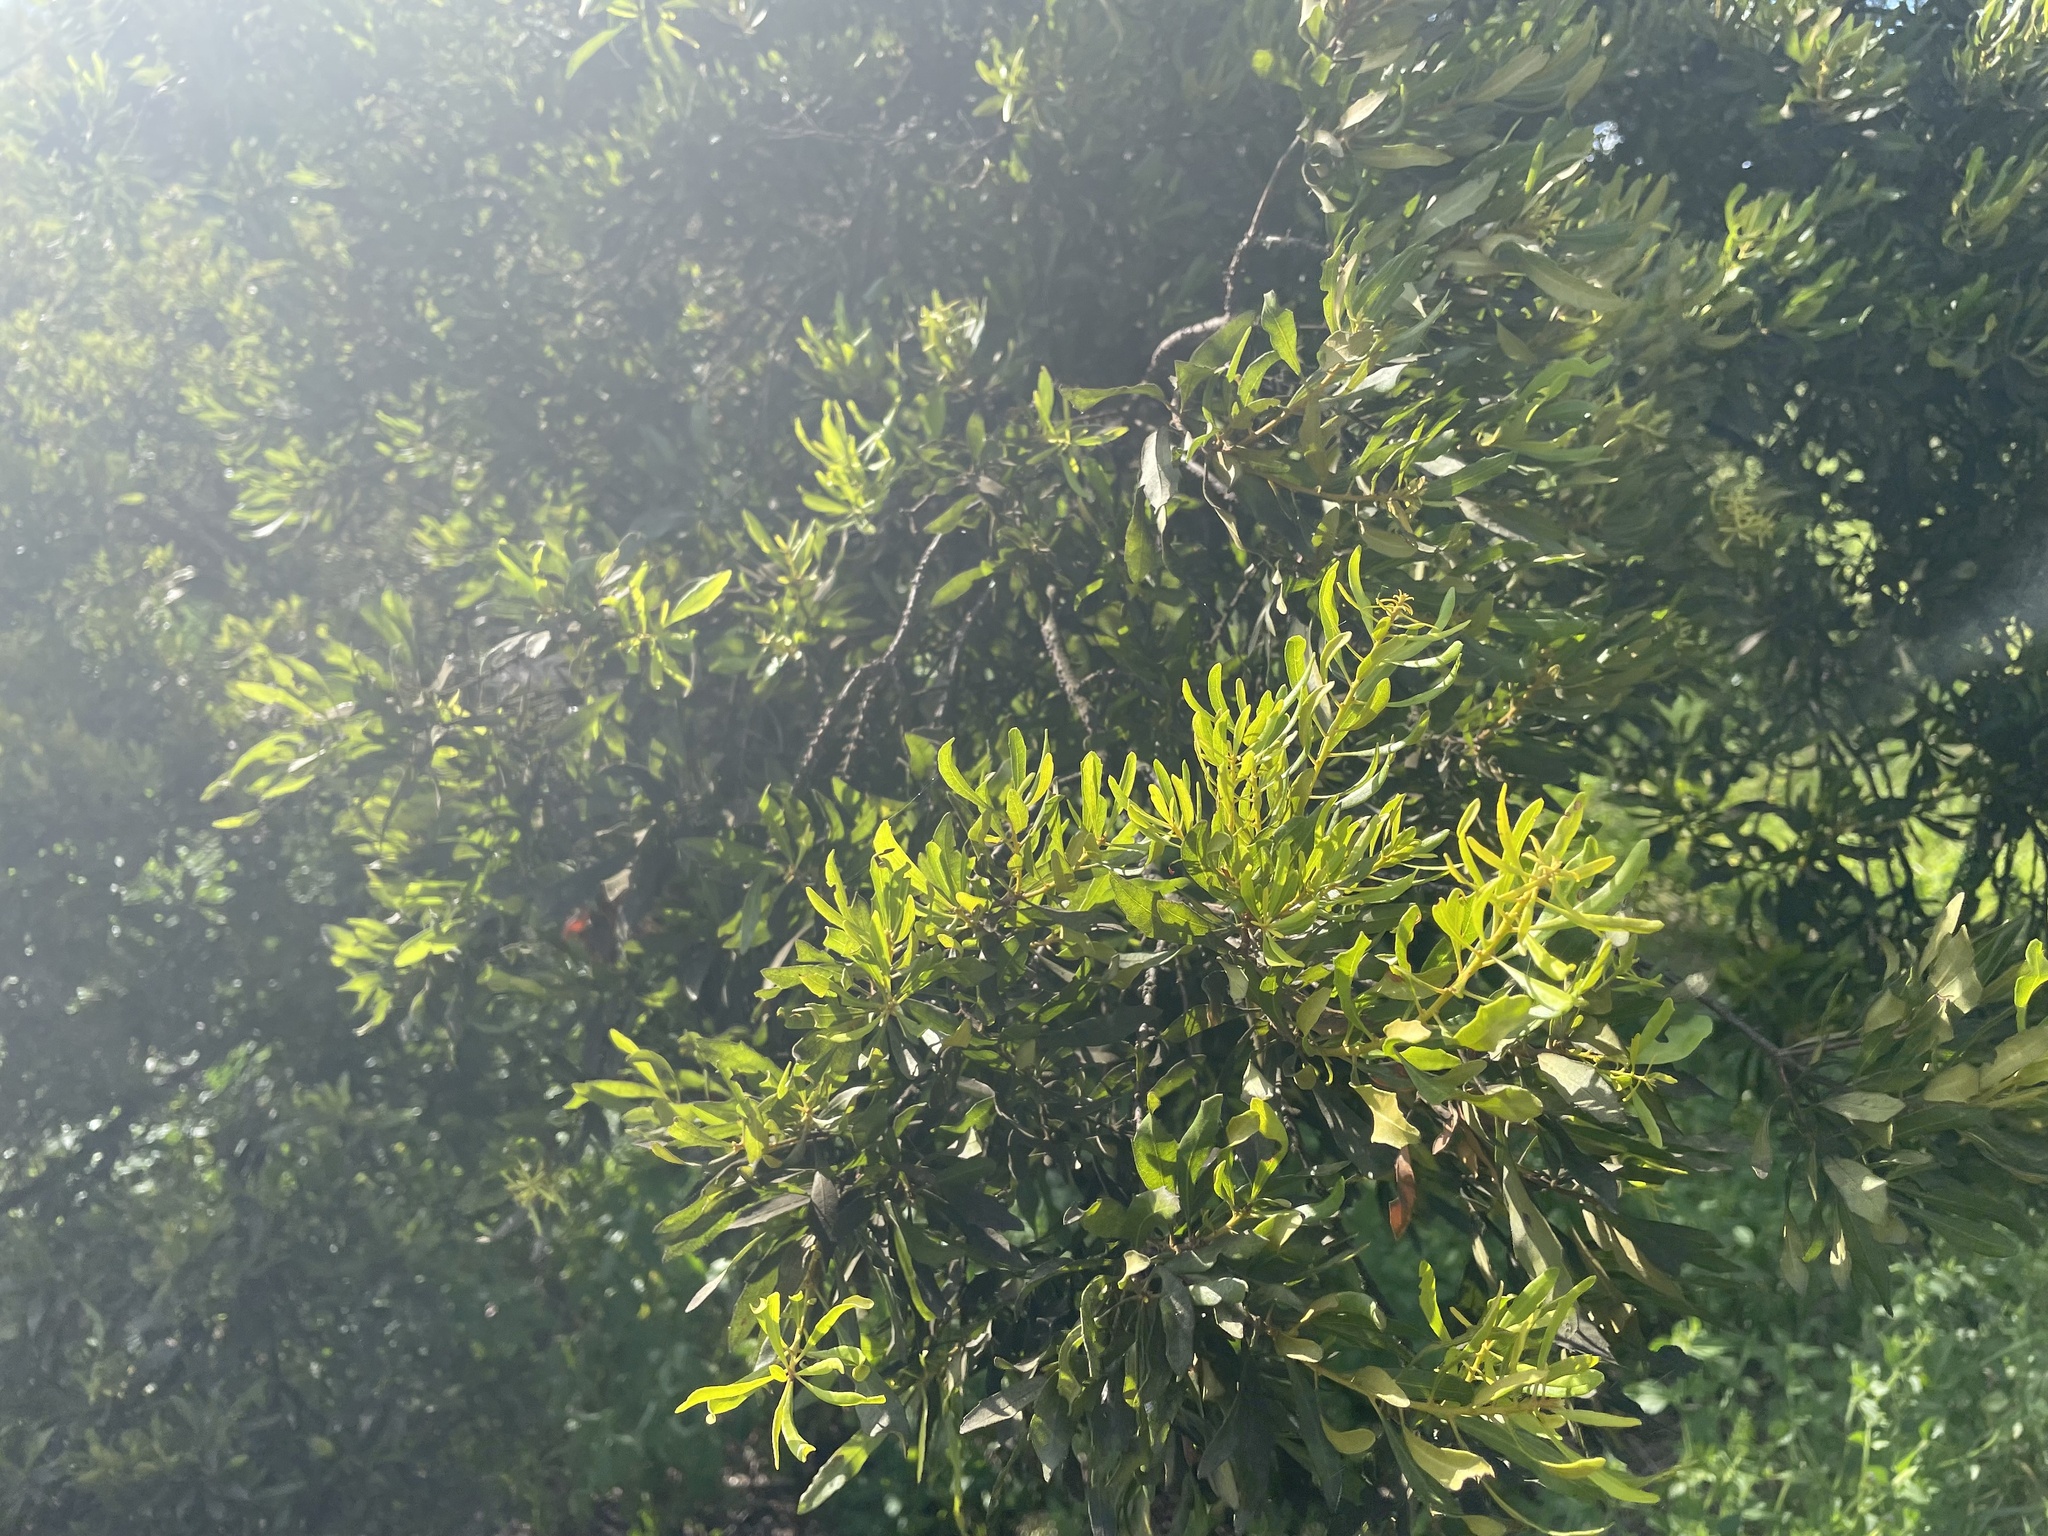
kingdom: Plantae
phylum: Tracheophyta
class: Magnoliopsida
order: Fagales
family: Myricaceae
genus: Morella
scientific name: Morella cerifera
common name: Wax myrtle
